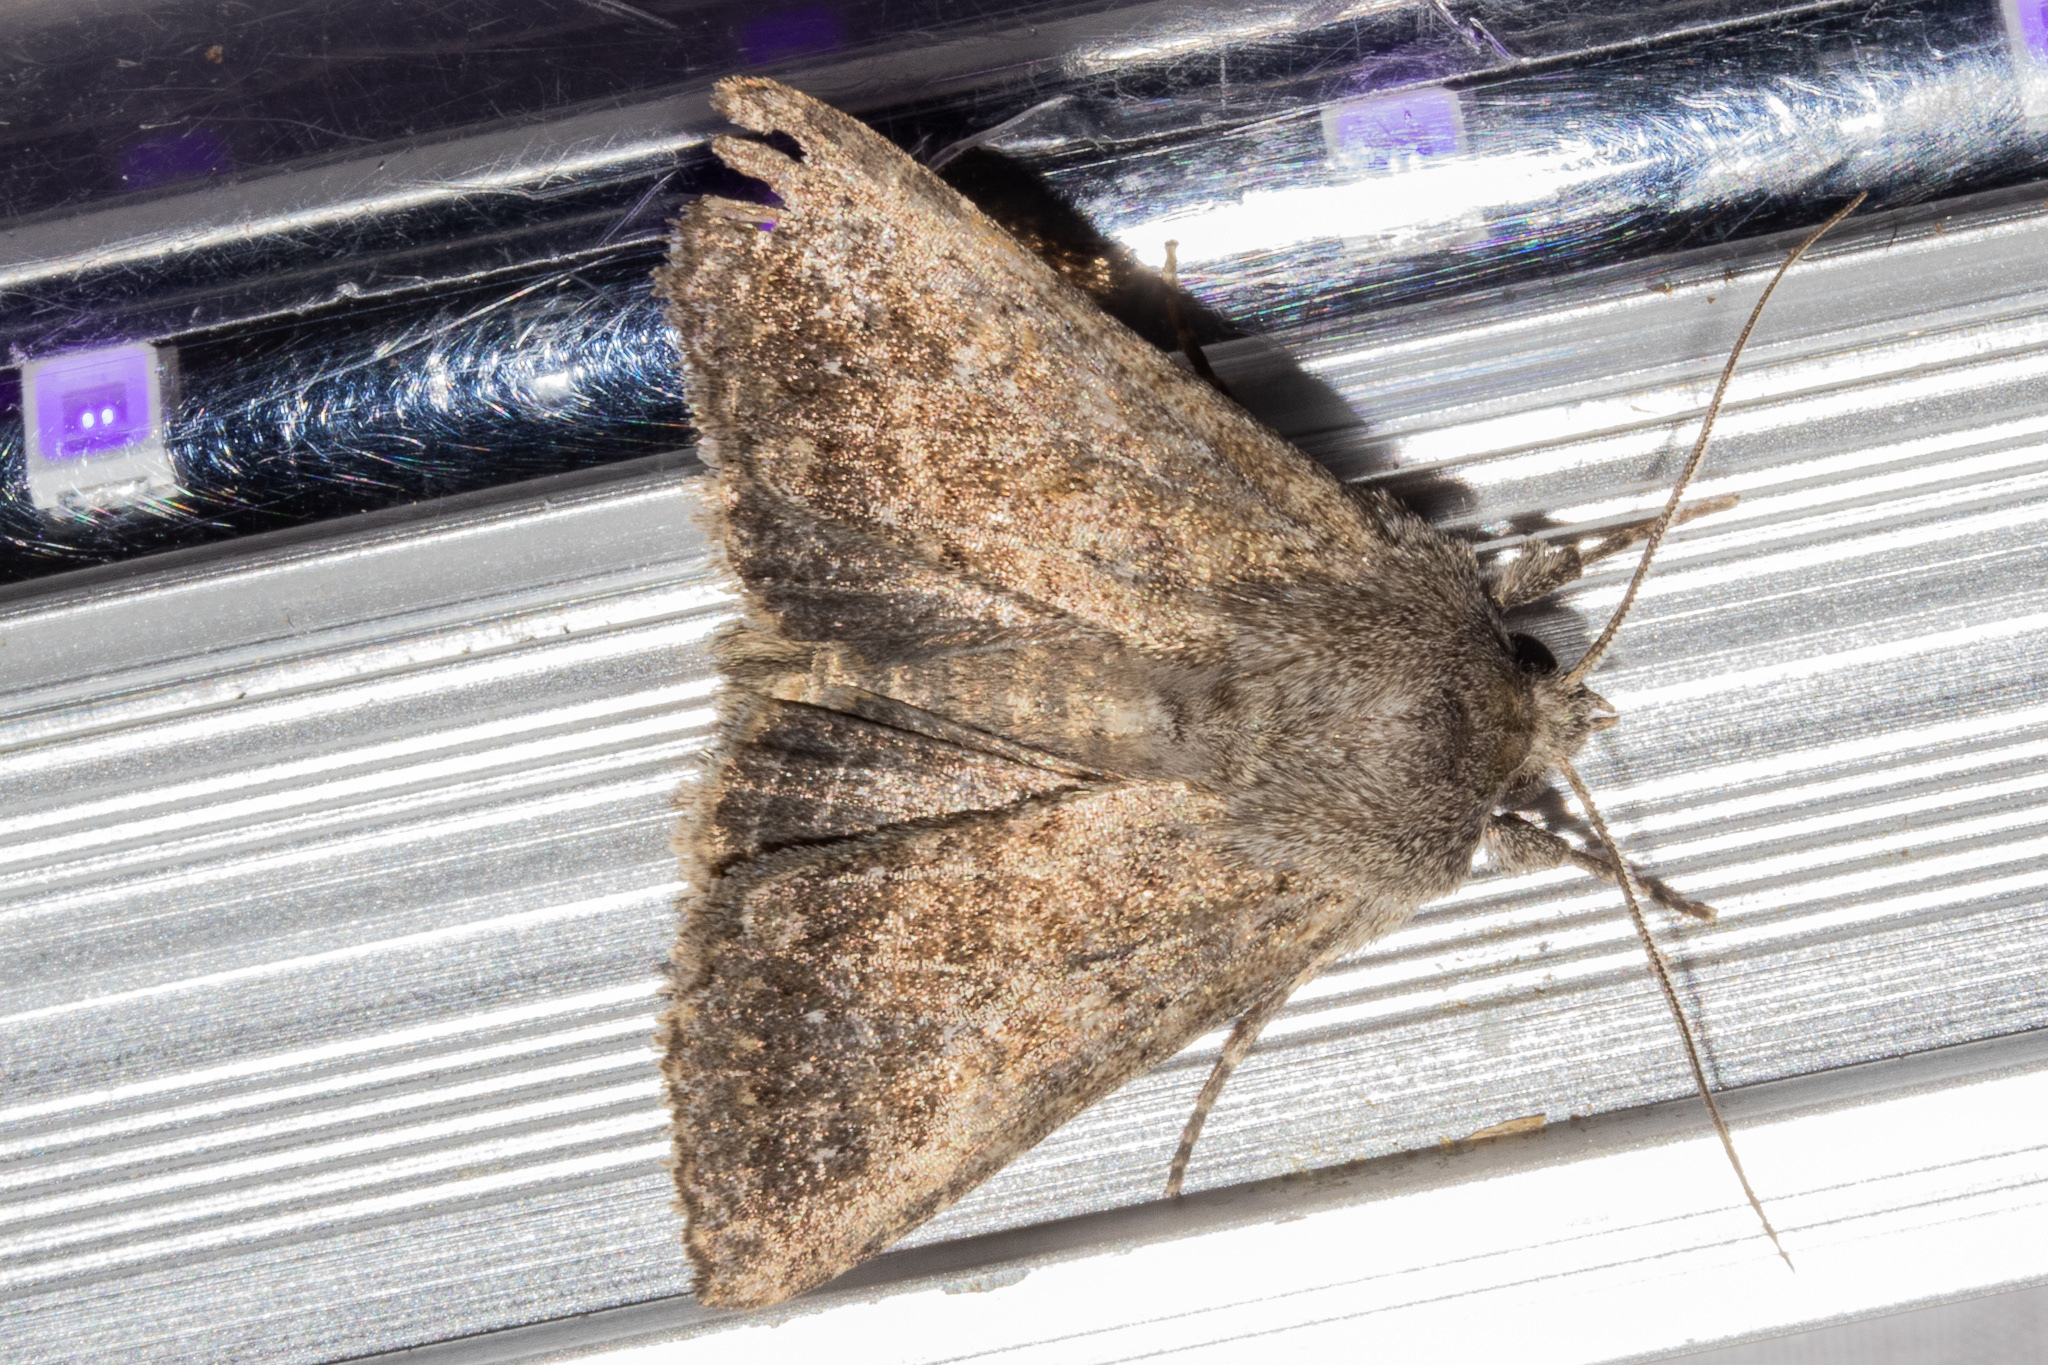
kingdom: Animalia
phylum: Arthropoda
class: Insecta
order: Lepidoptera
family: Noctuidae
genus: Physetica
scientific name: Physetica
